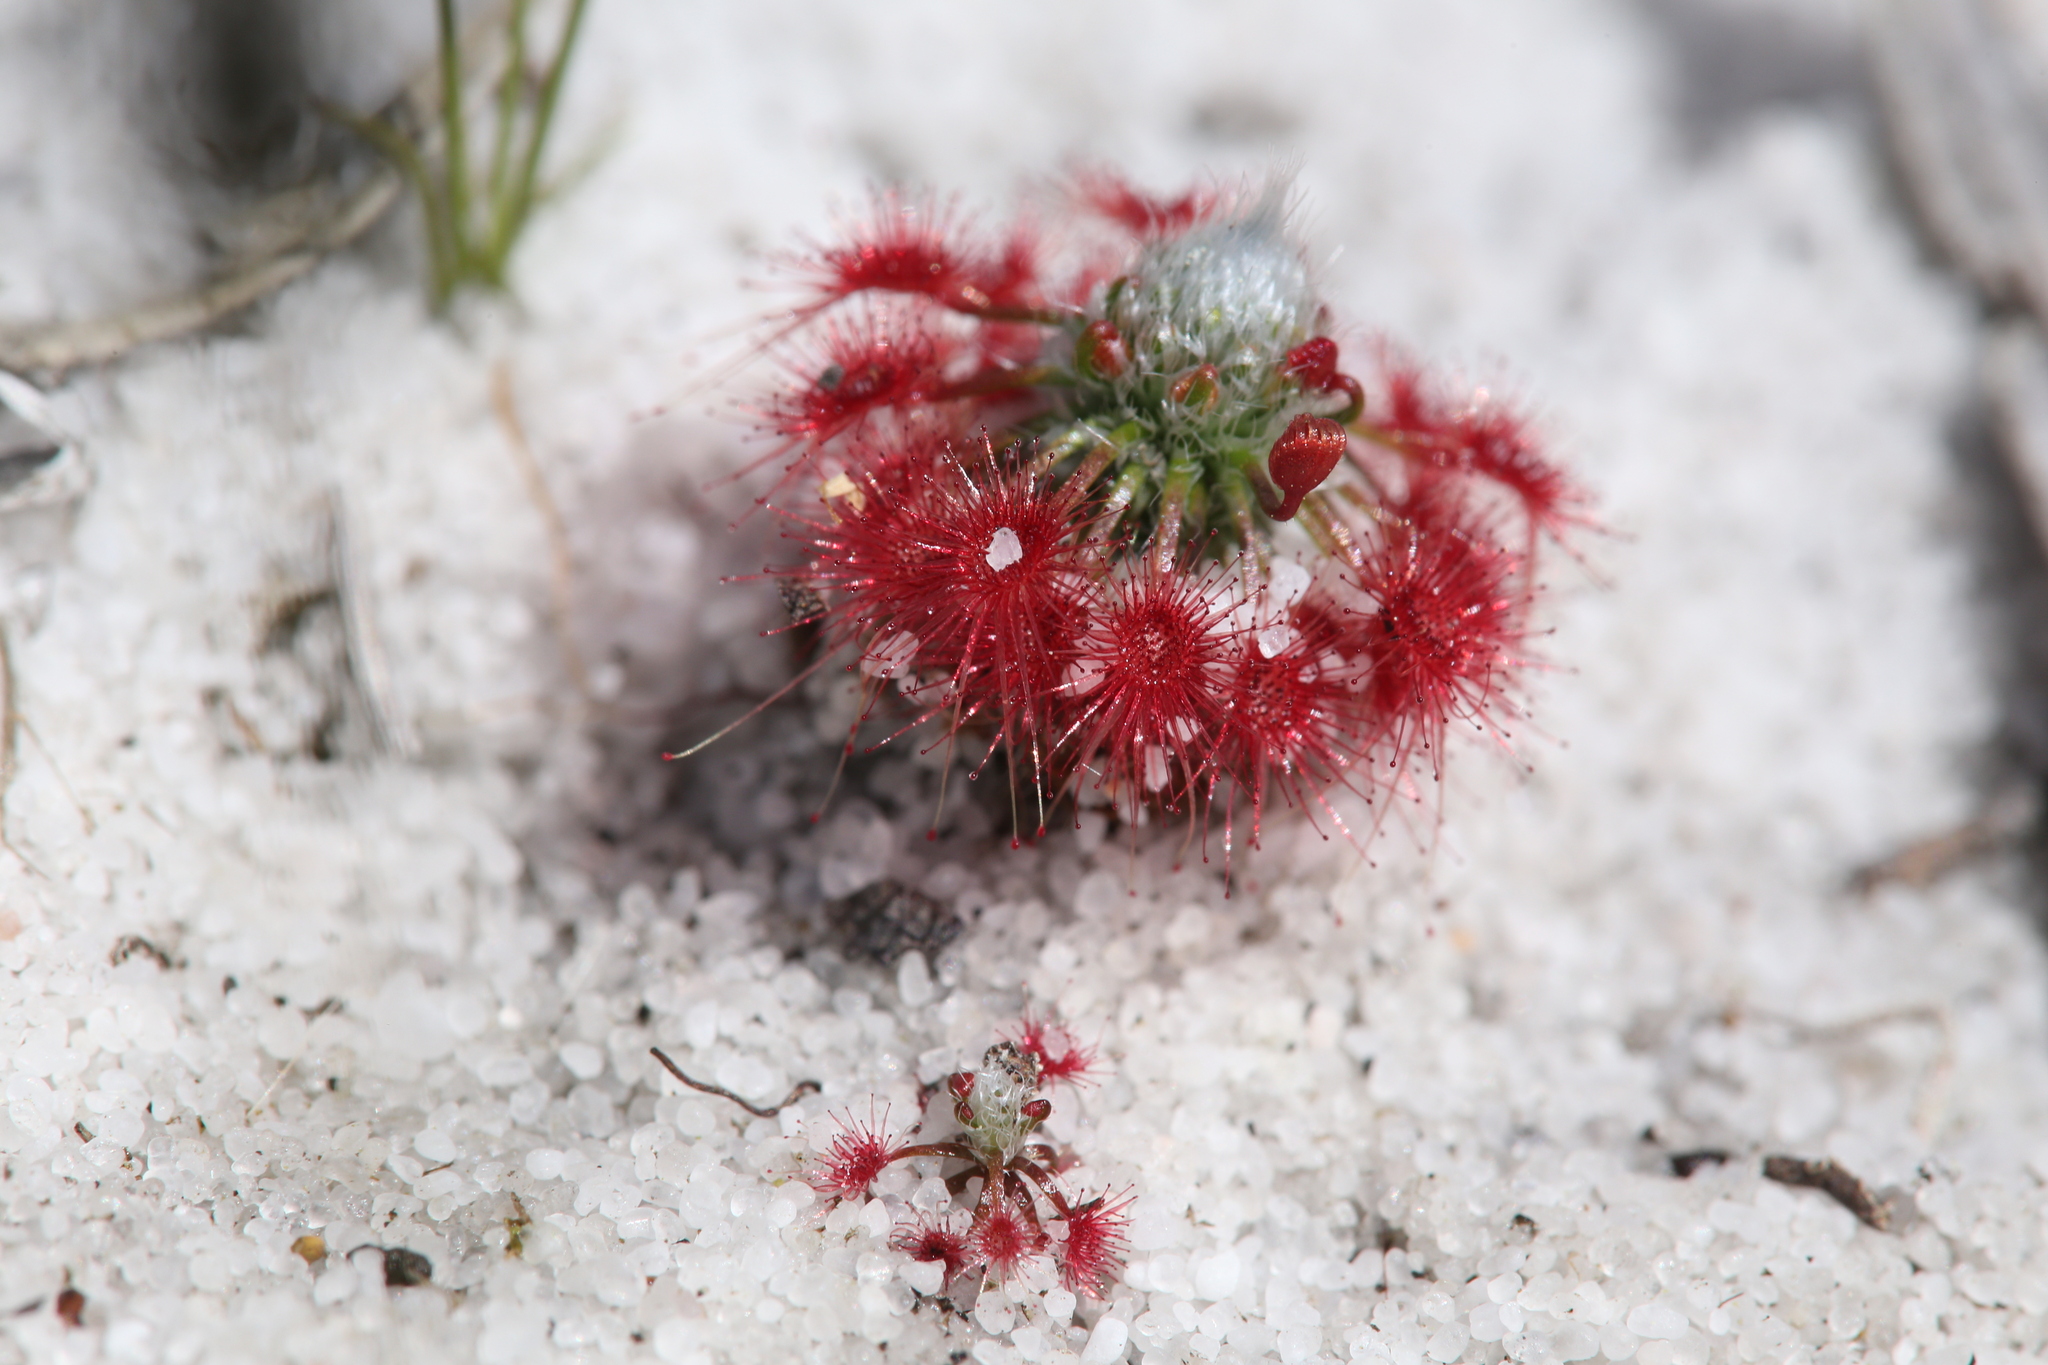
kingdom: Plantae
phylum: Tracheophyta
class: Magnoliopsida
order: Caryophyllales
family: Droseraceae
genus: Drosera
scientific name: Drosera paleacea
